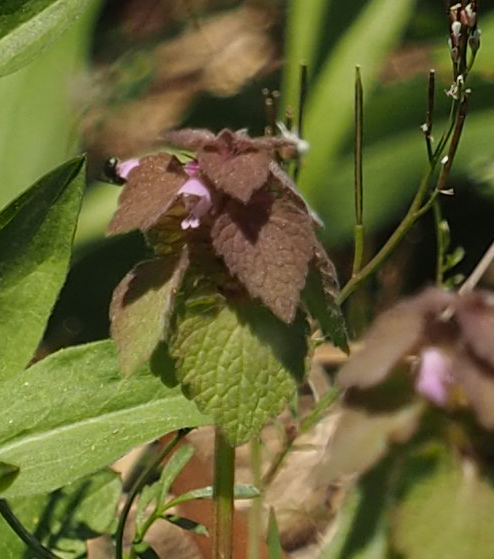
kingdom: Plantae
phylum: Tracheophyta
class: Magnoliopsida
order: Lamiales
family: Lamiaceae
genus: Lamium
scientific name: Lamium purpureum
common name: Red dead-nettle
